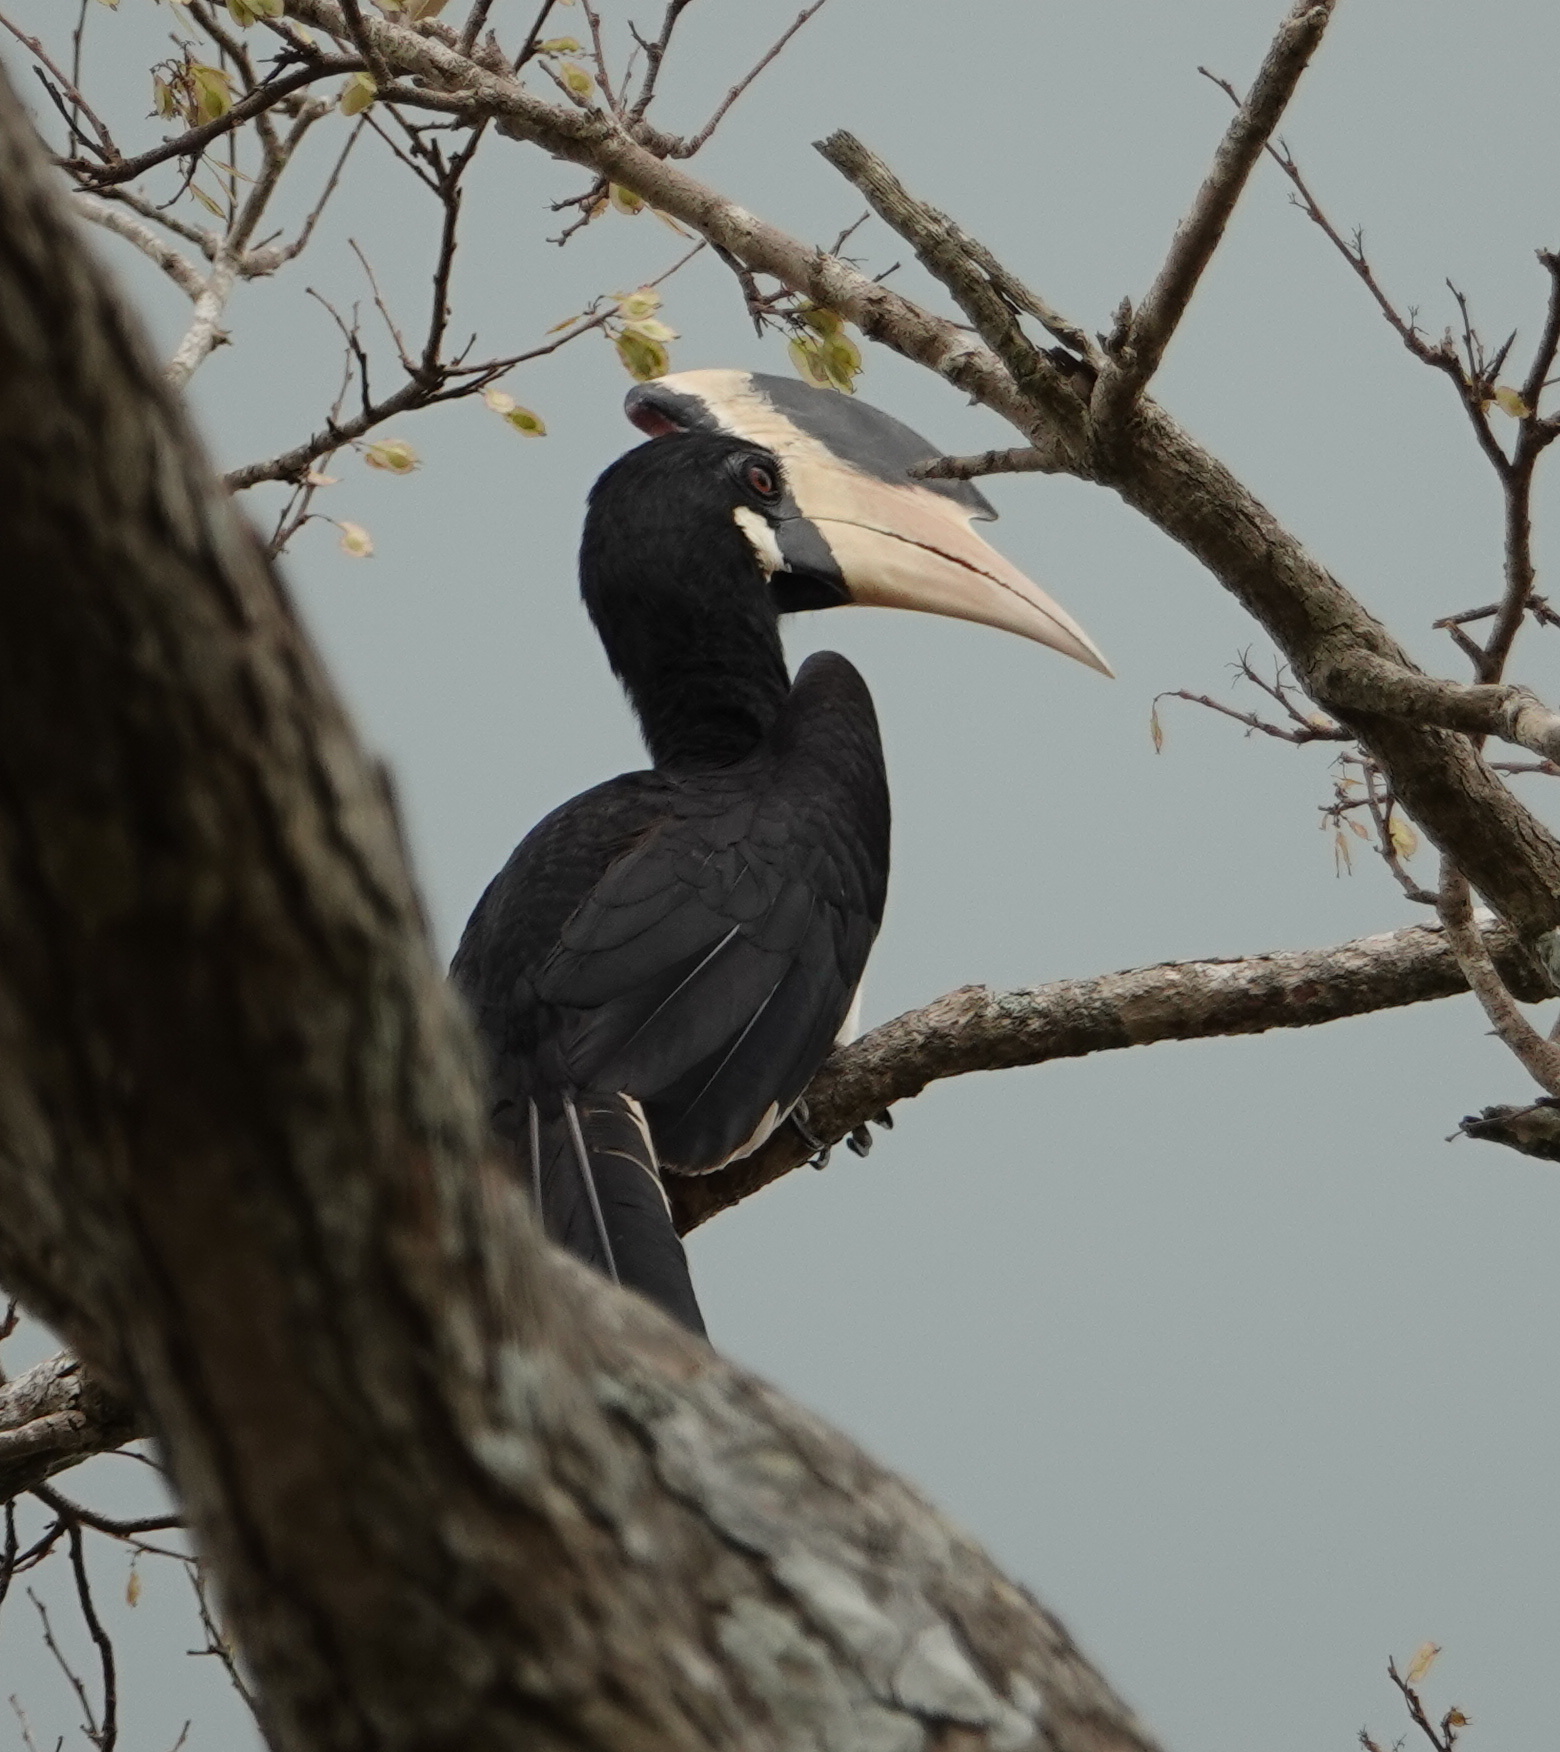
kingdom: Animalia
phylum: Chordata
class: Aves
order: Bucerotiformes
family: Bucerotidae
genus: Anthracoceros
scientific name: Anthracoceros coronatus
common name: Malabar pied hornbill
